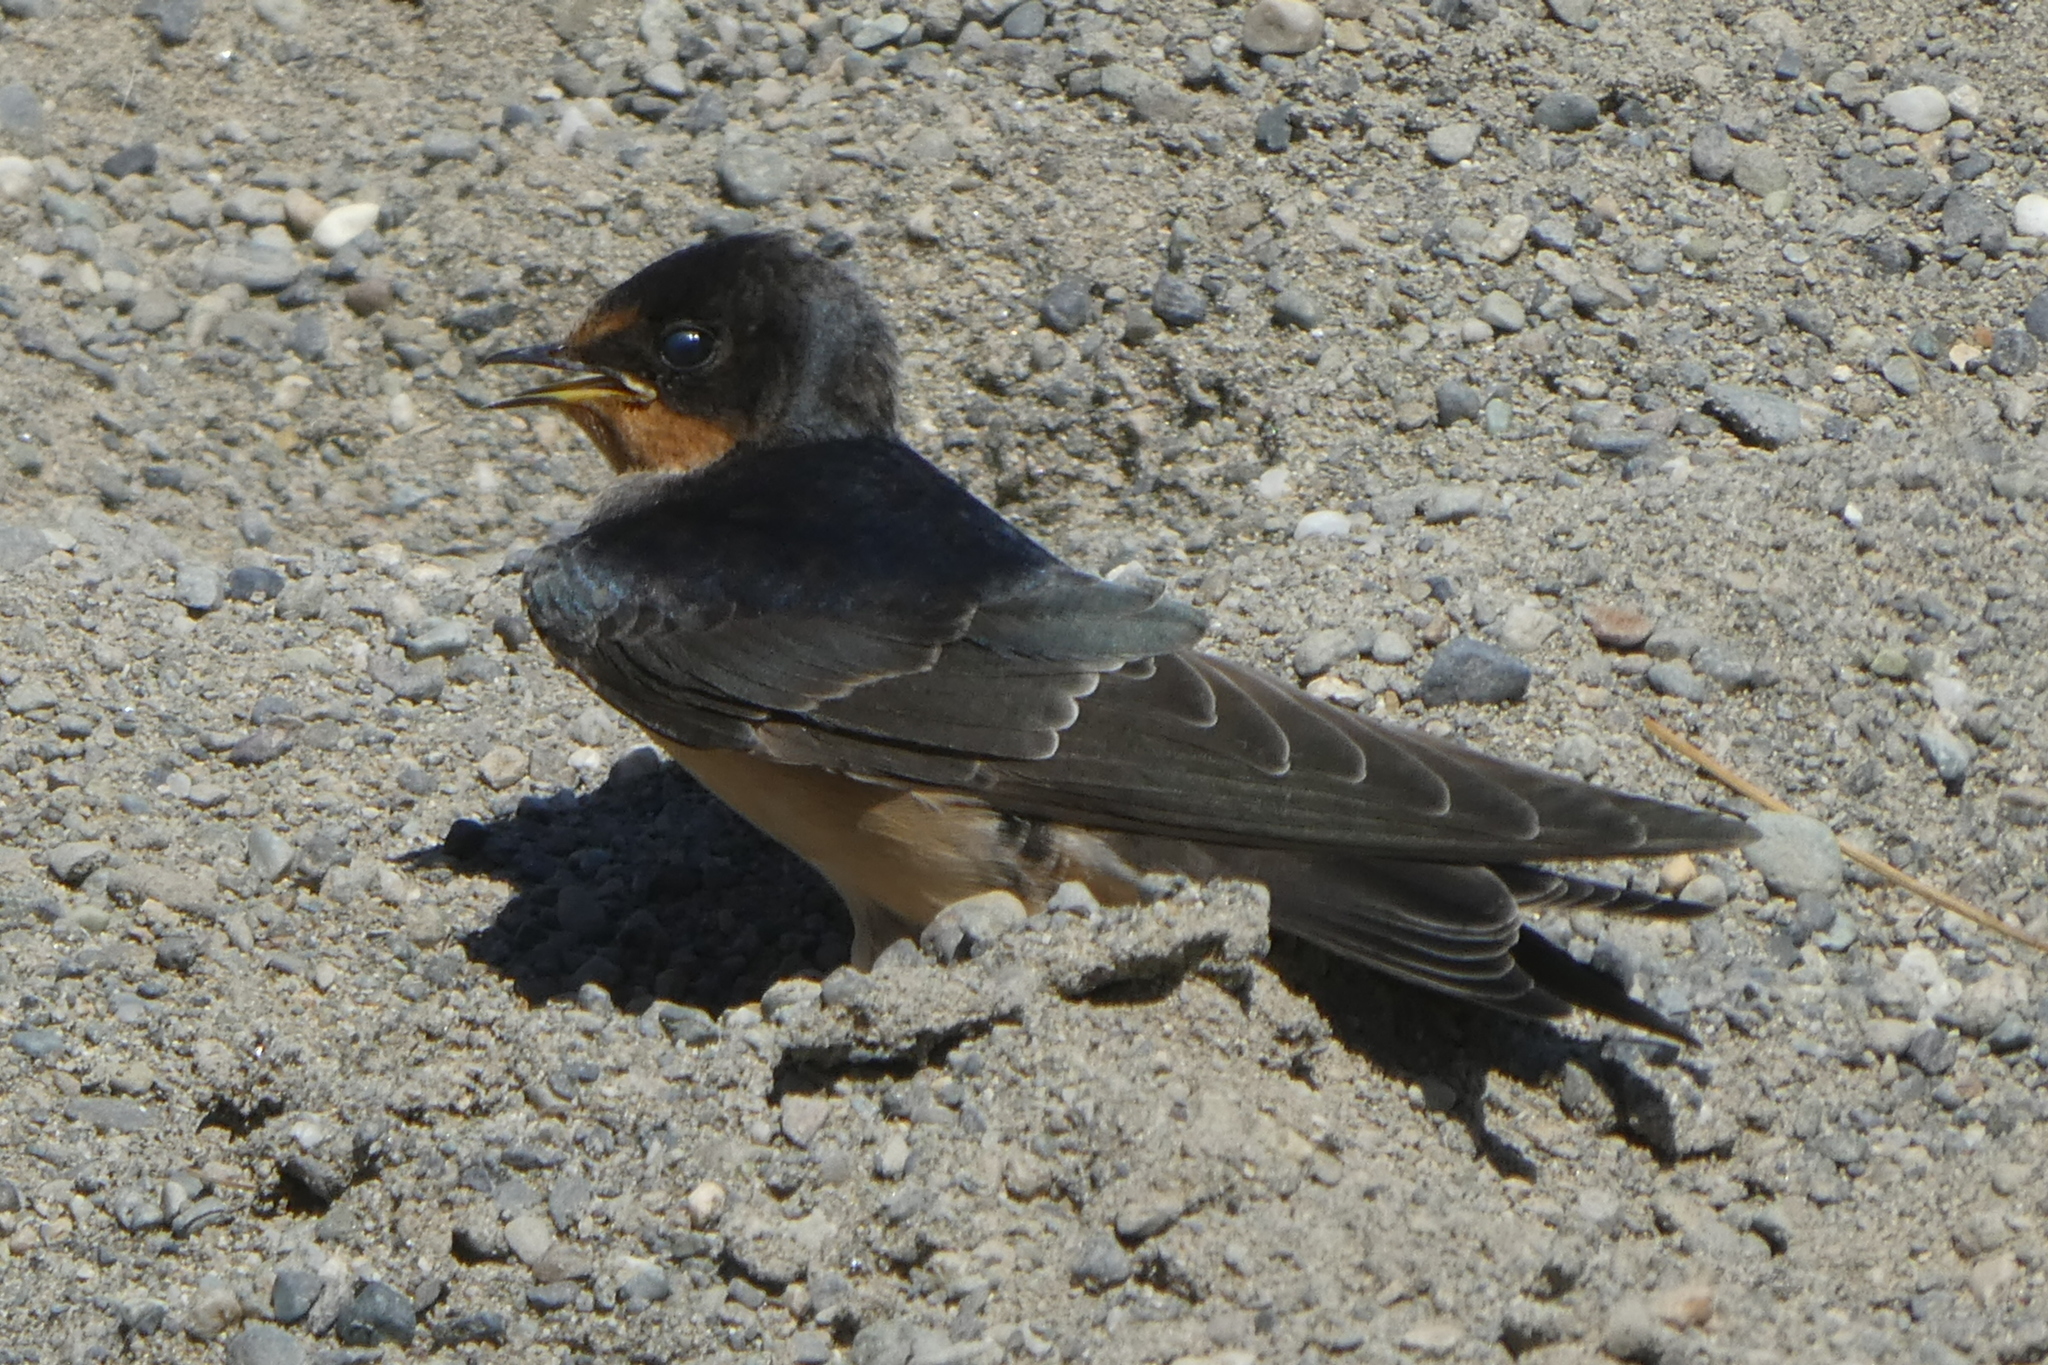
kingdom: Animalia
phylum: Chordata
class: Aves
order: Passeriformes
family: Hirundinidae
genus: Hirundo
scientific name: Hirundo rustica
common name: Barn swallow
